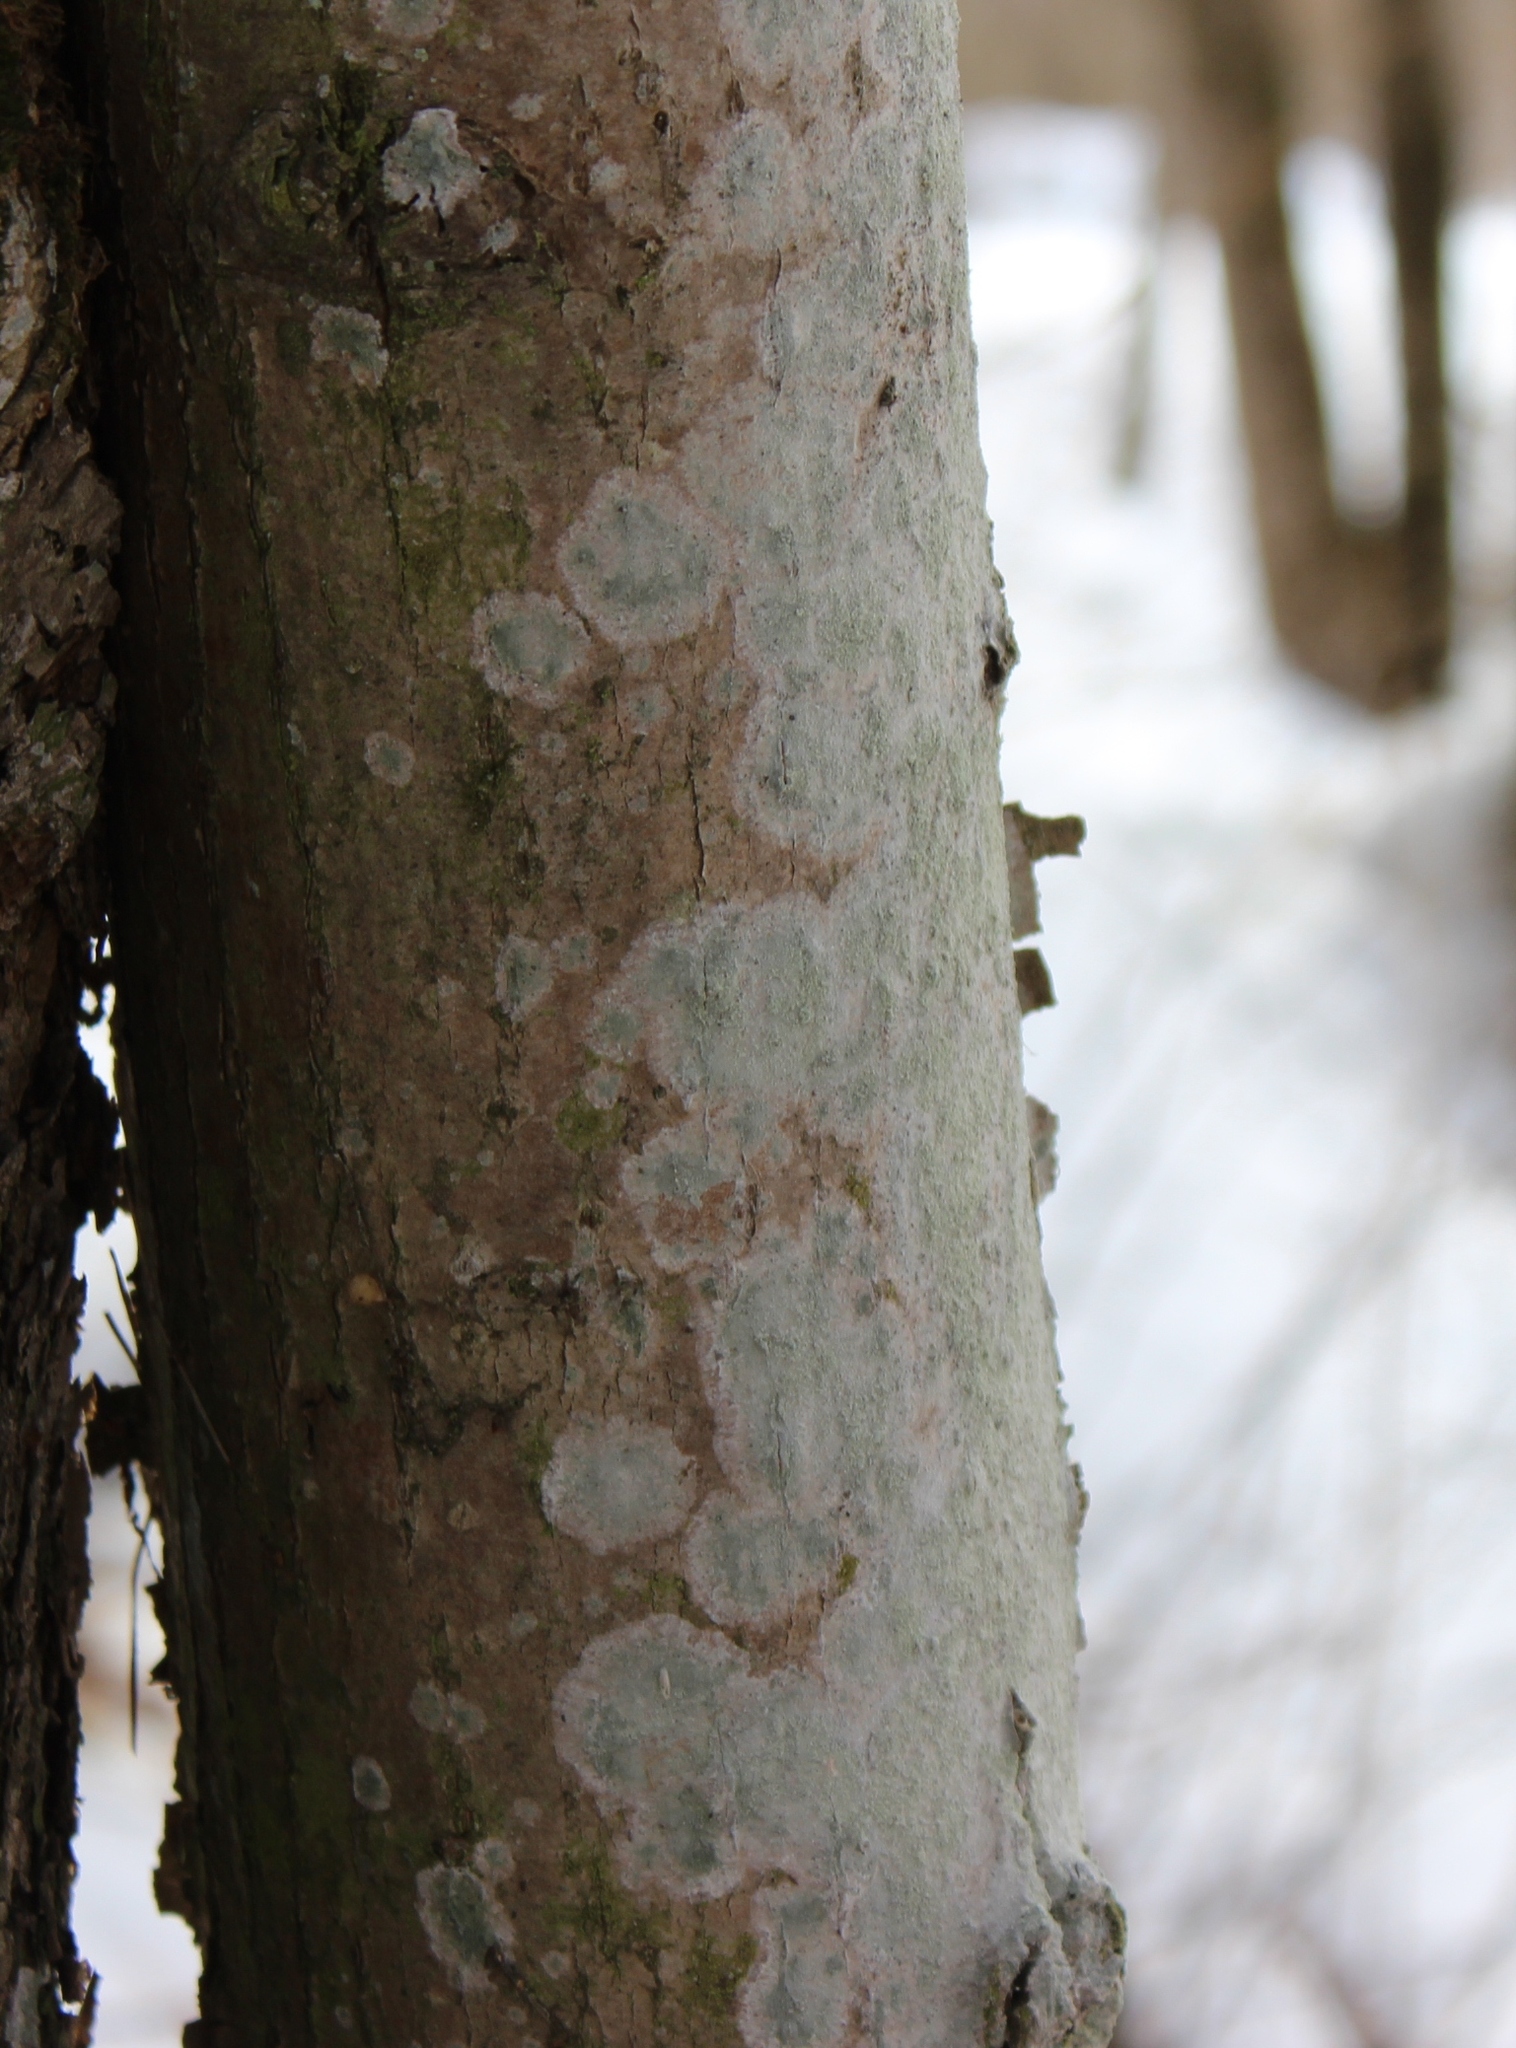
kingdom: Fungi
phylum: Ascomycota
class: Lecanoromycetes
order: Ostropales
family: Phlyctidaceae
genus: Phlyctis
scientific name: Phlyctis argena
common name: Whitewash lichen
